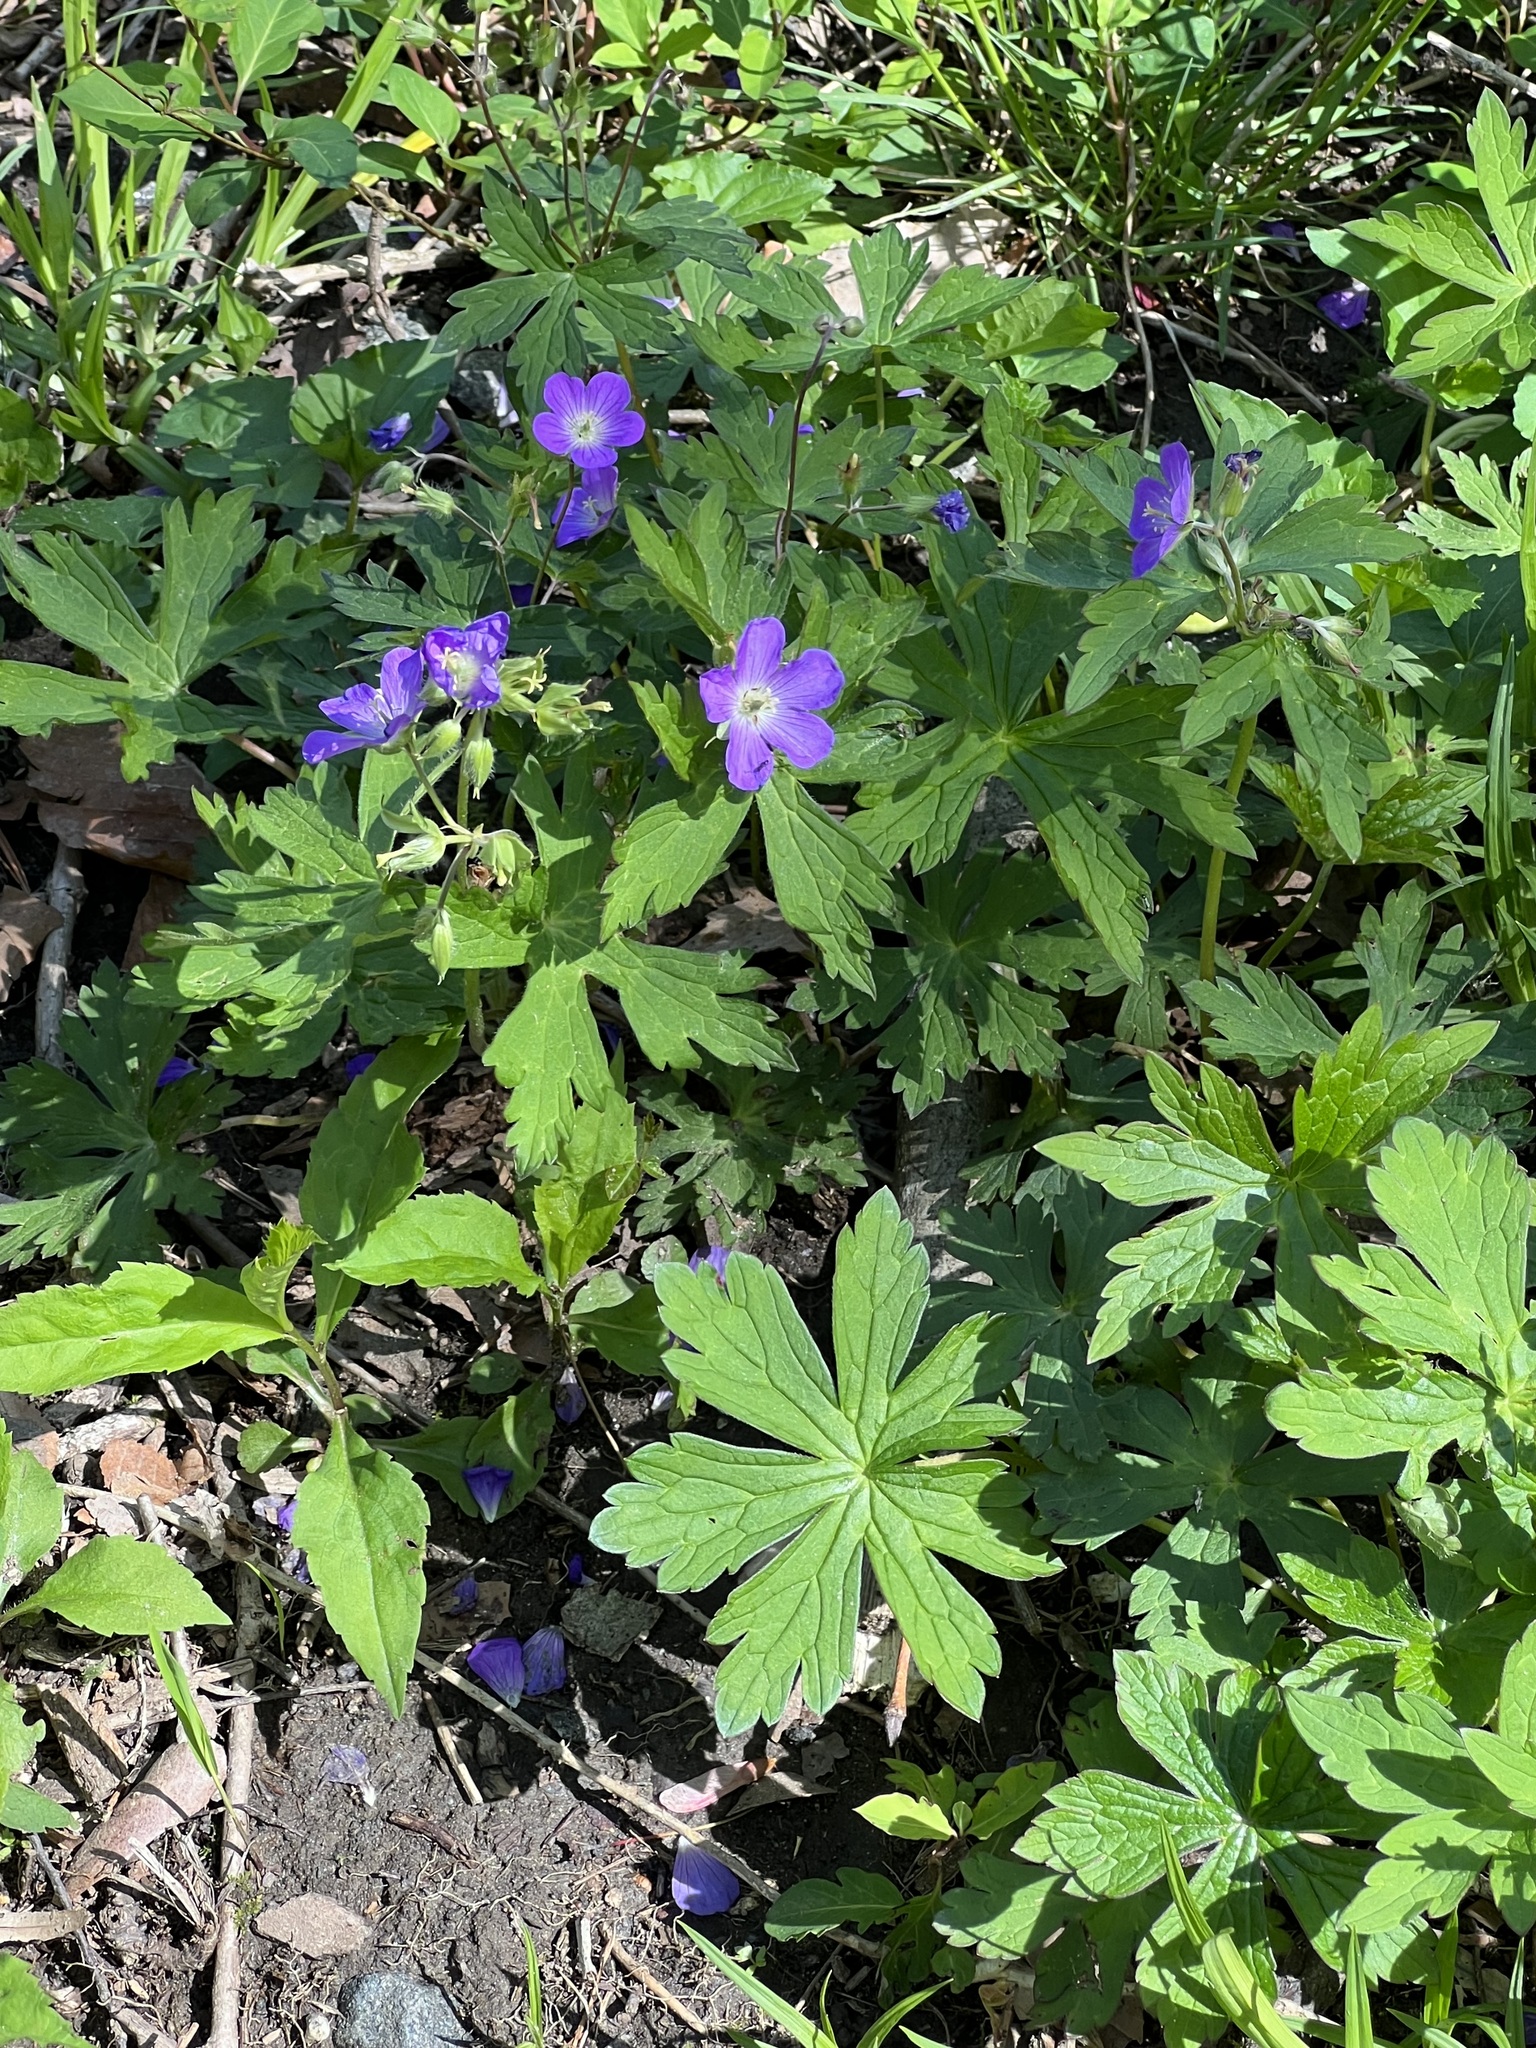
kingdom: Plantae
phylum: Tracheophyta
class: Magnoliopsida
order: Geraniales
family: Geraniaceae
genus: Geranium
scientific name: Geranium maculatum
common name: Spotted geranium
